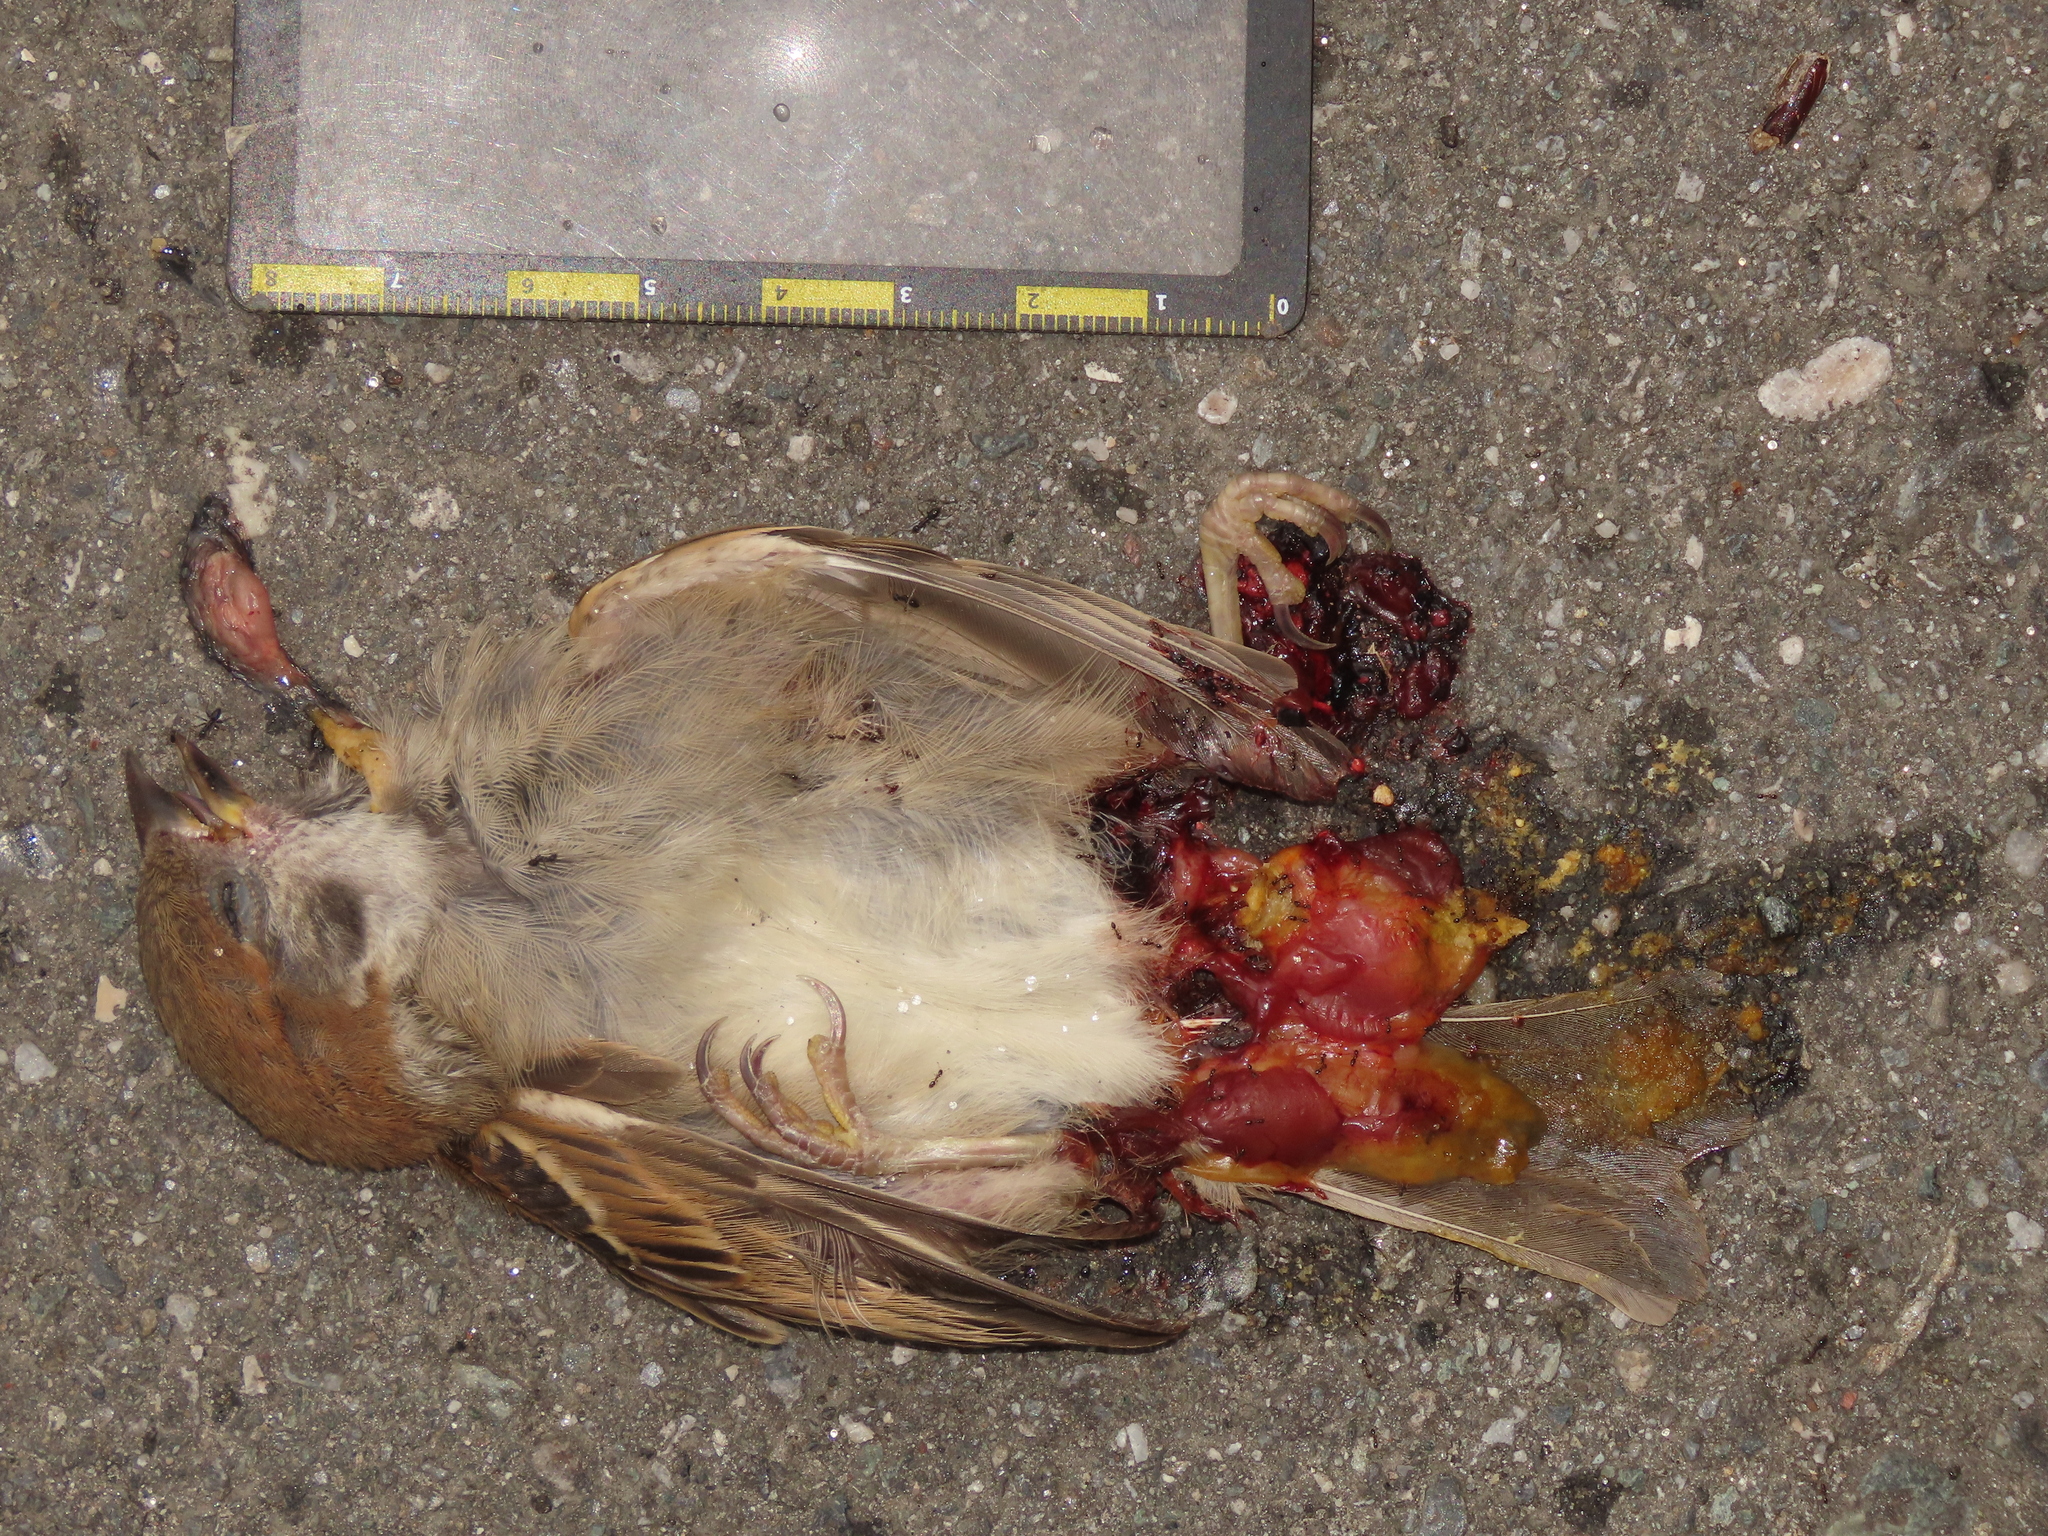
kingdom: Animalia
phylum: Chordata
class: Aves
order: Passeriformes
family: Passeridae
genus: Passer
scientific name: Passer montanus
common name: Eurasian tree sparrow
